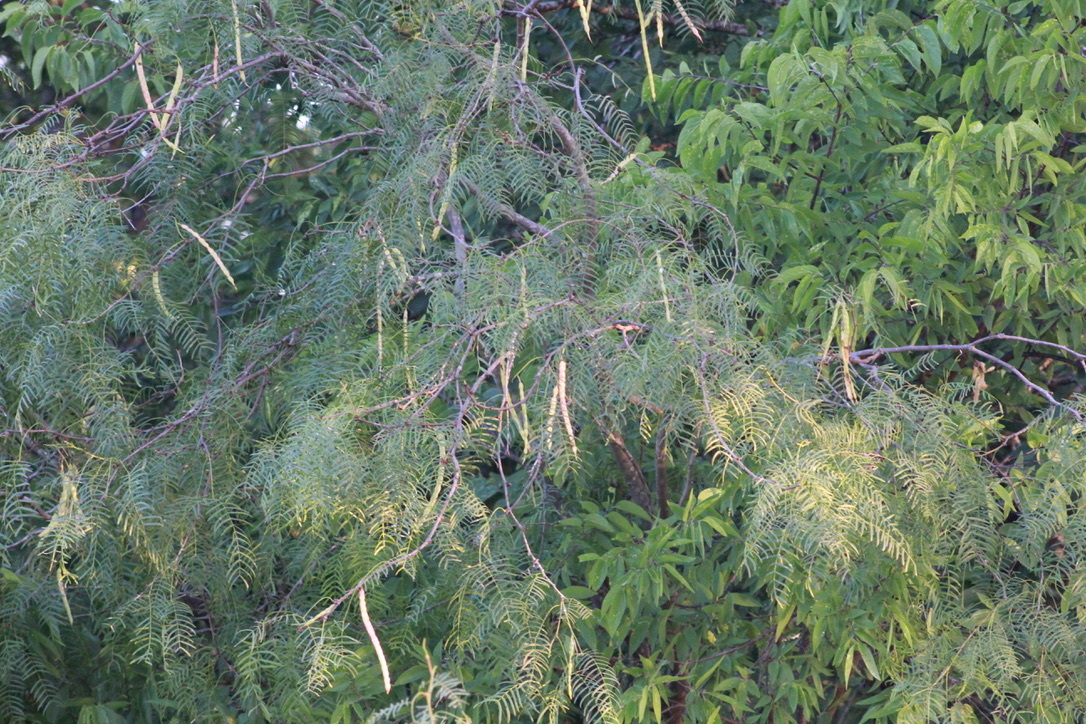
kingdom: Plantae
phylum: Tracheophyta
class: Magnoliopsida
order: Fabales
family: Fabaceae
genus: Prosopis
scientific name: Prosopis glandulosa
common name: Honey mesquite
